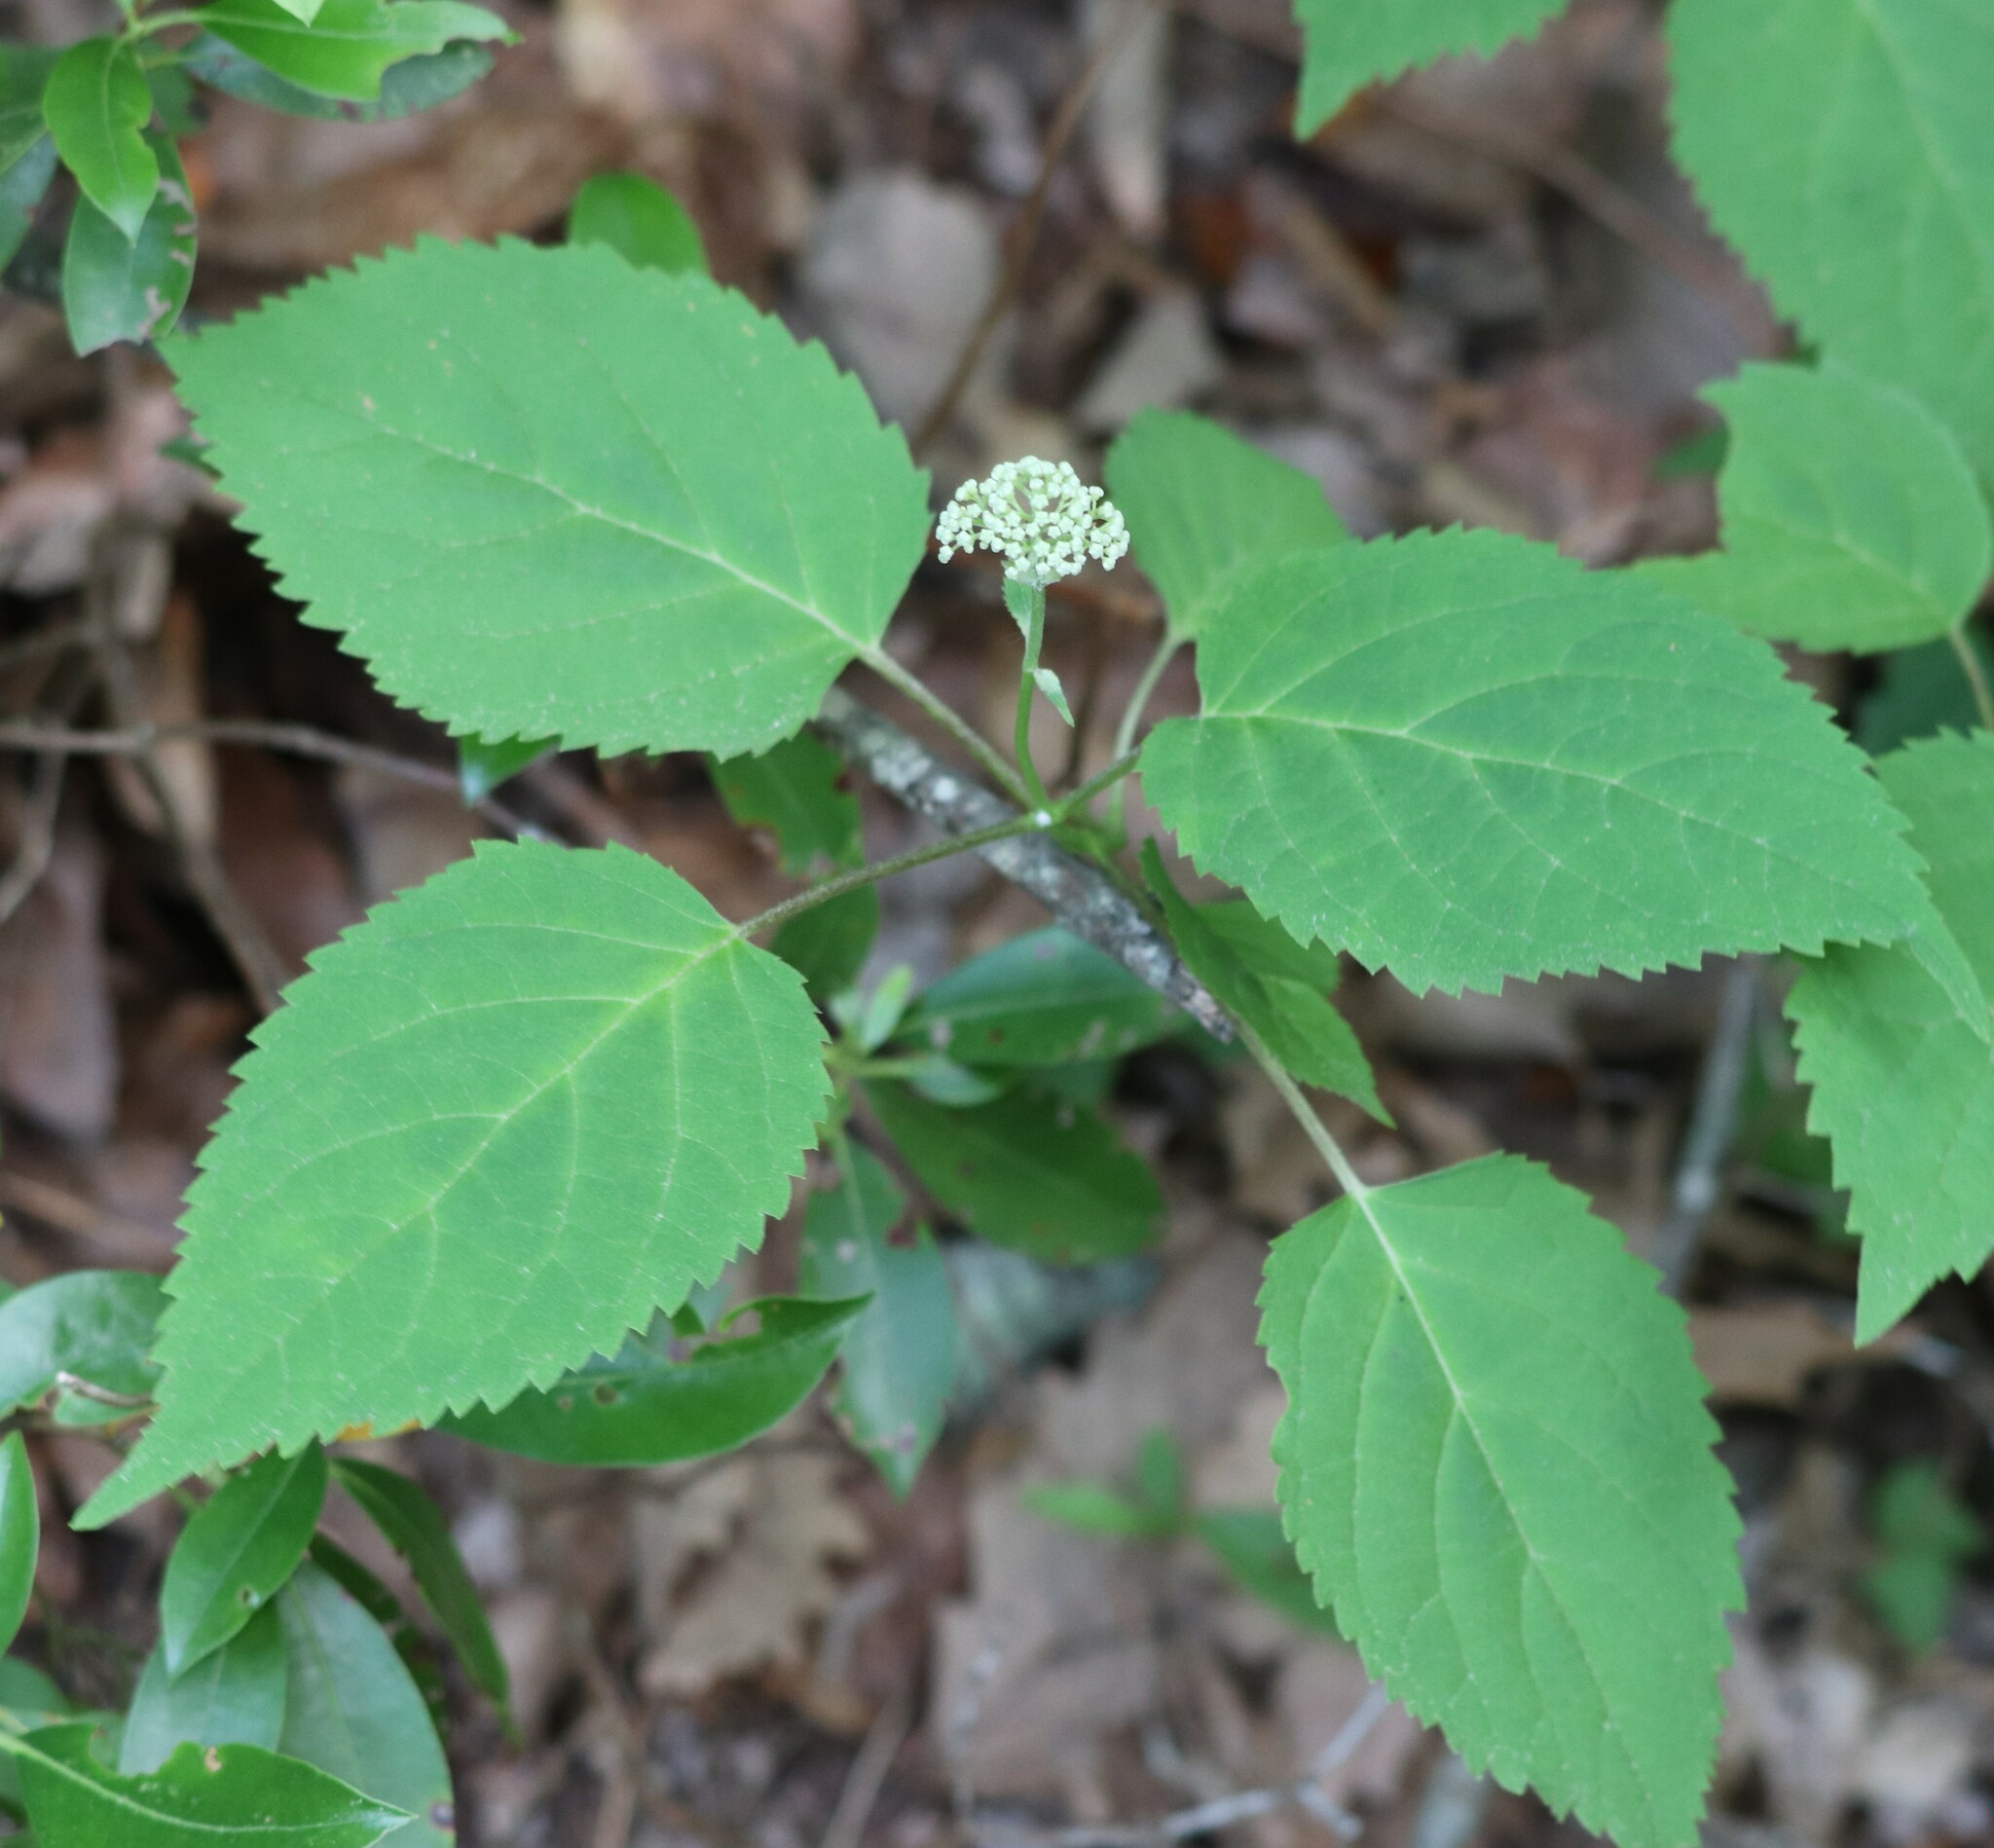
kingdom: Plantae
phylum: Tracheophyta
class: Magnoliopsida
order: Cornales
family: Hydrangeaceae
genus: Hydrangea
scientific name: Hydrangea arborescens
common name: Sevenbark
